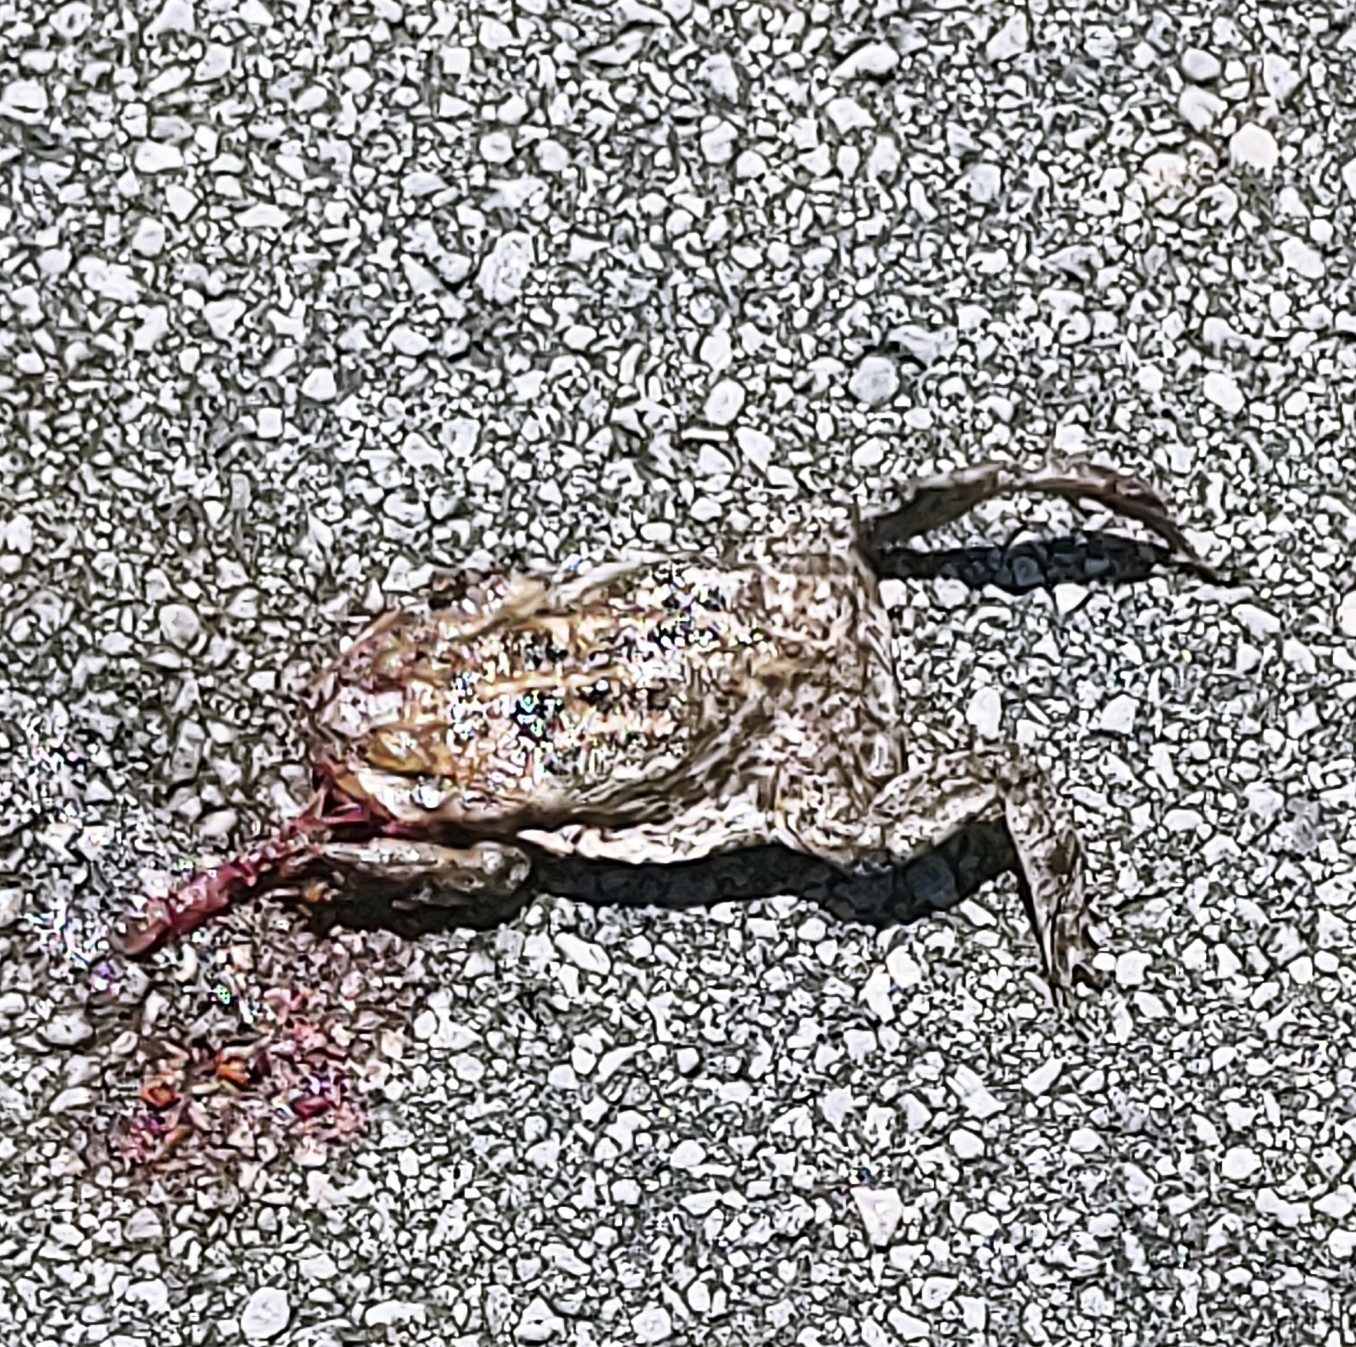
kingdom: Animalia
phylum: Chordata
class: Amphibia
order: Anura
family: Bufonidae
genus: Rhinella
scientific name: Rhinella marina
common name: Cane toad
